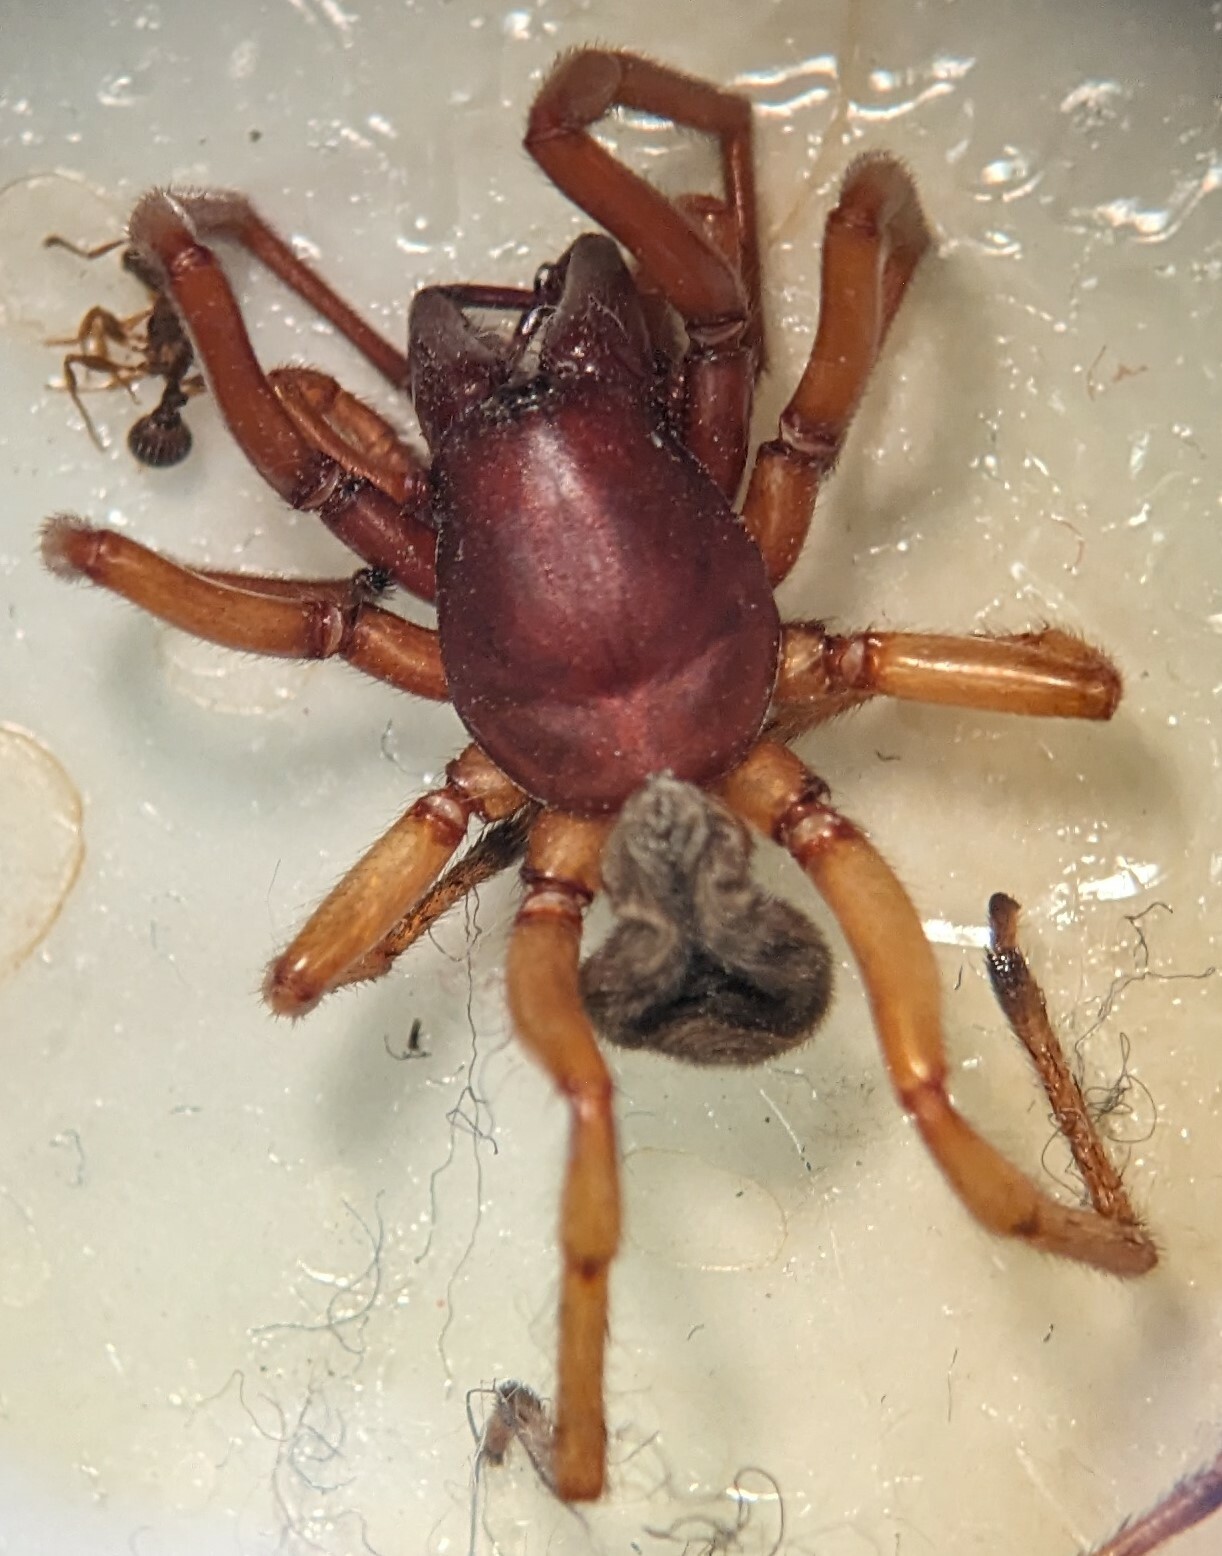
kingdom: Animalia
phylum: Arthropoda
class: Arachnida
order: Araneae
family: Dysderidae
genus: Dysdera
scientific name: Dysdera crocata
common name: Woodlouse spider
